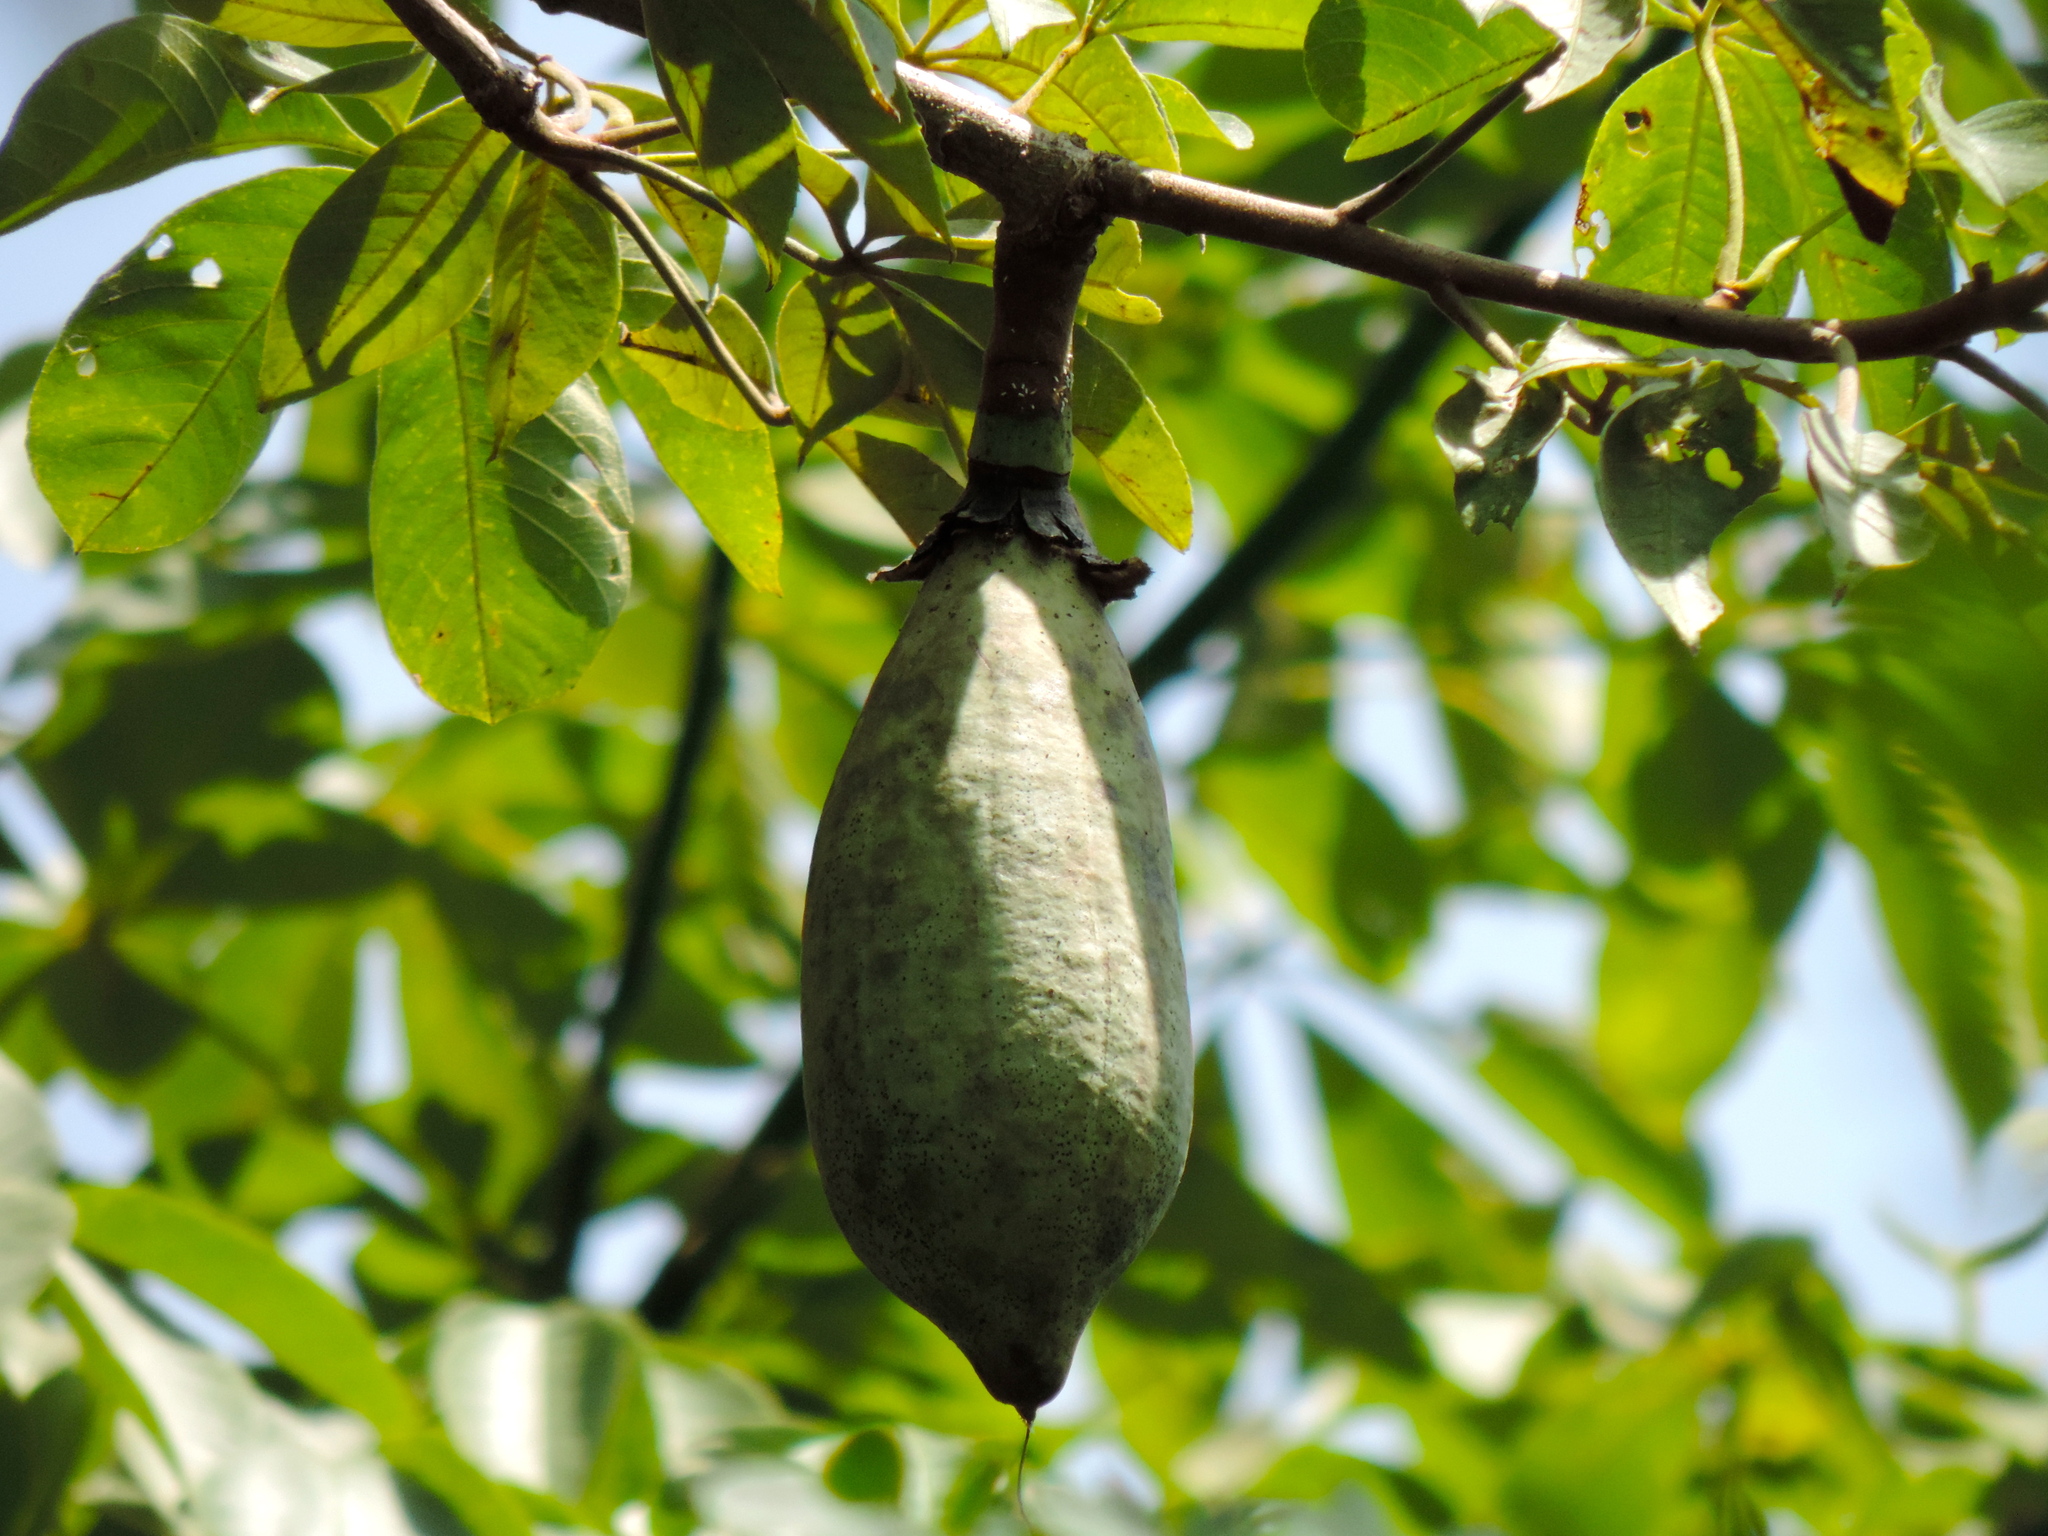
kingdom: Plantae
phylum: Tracheophyta
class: Magnoliopsida
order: Malvales
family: Malvaceae
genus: Ceiba
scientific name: Ceiba aesculifolia
